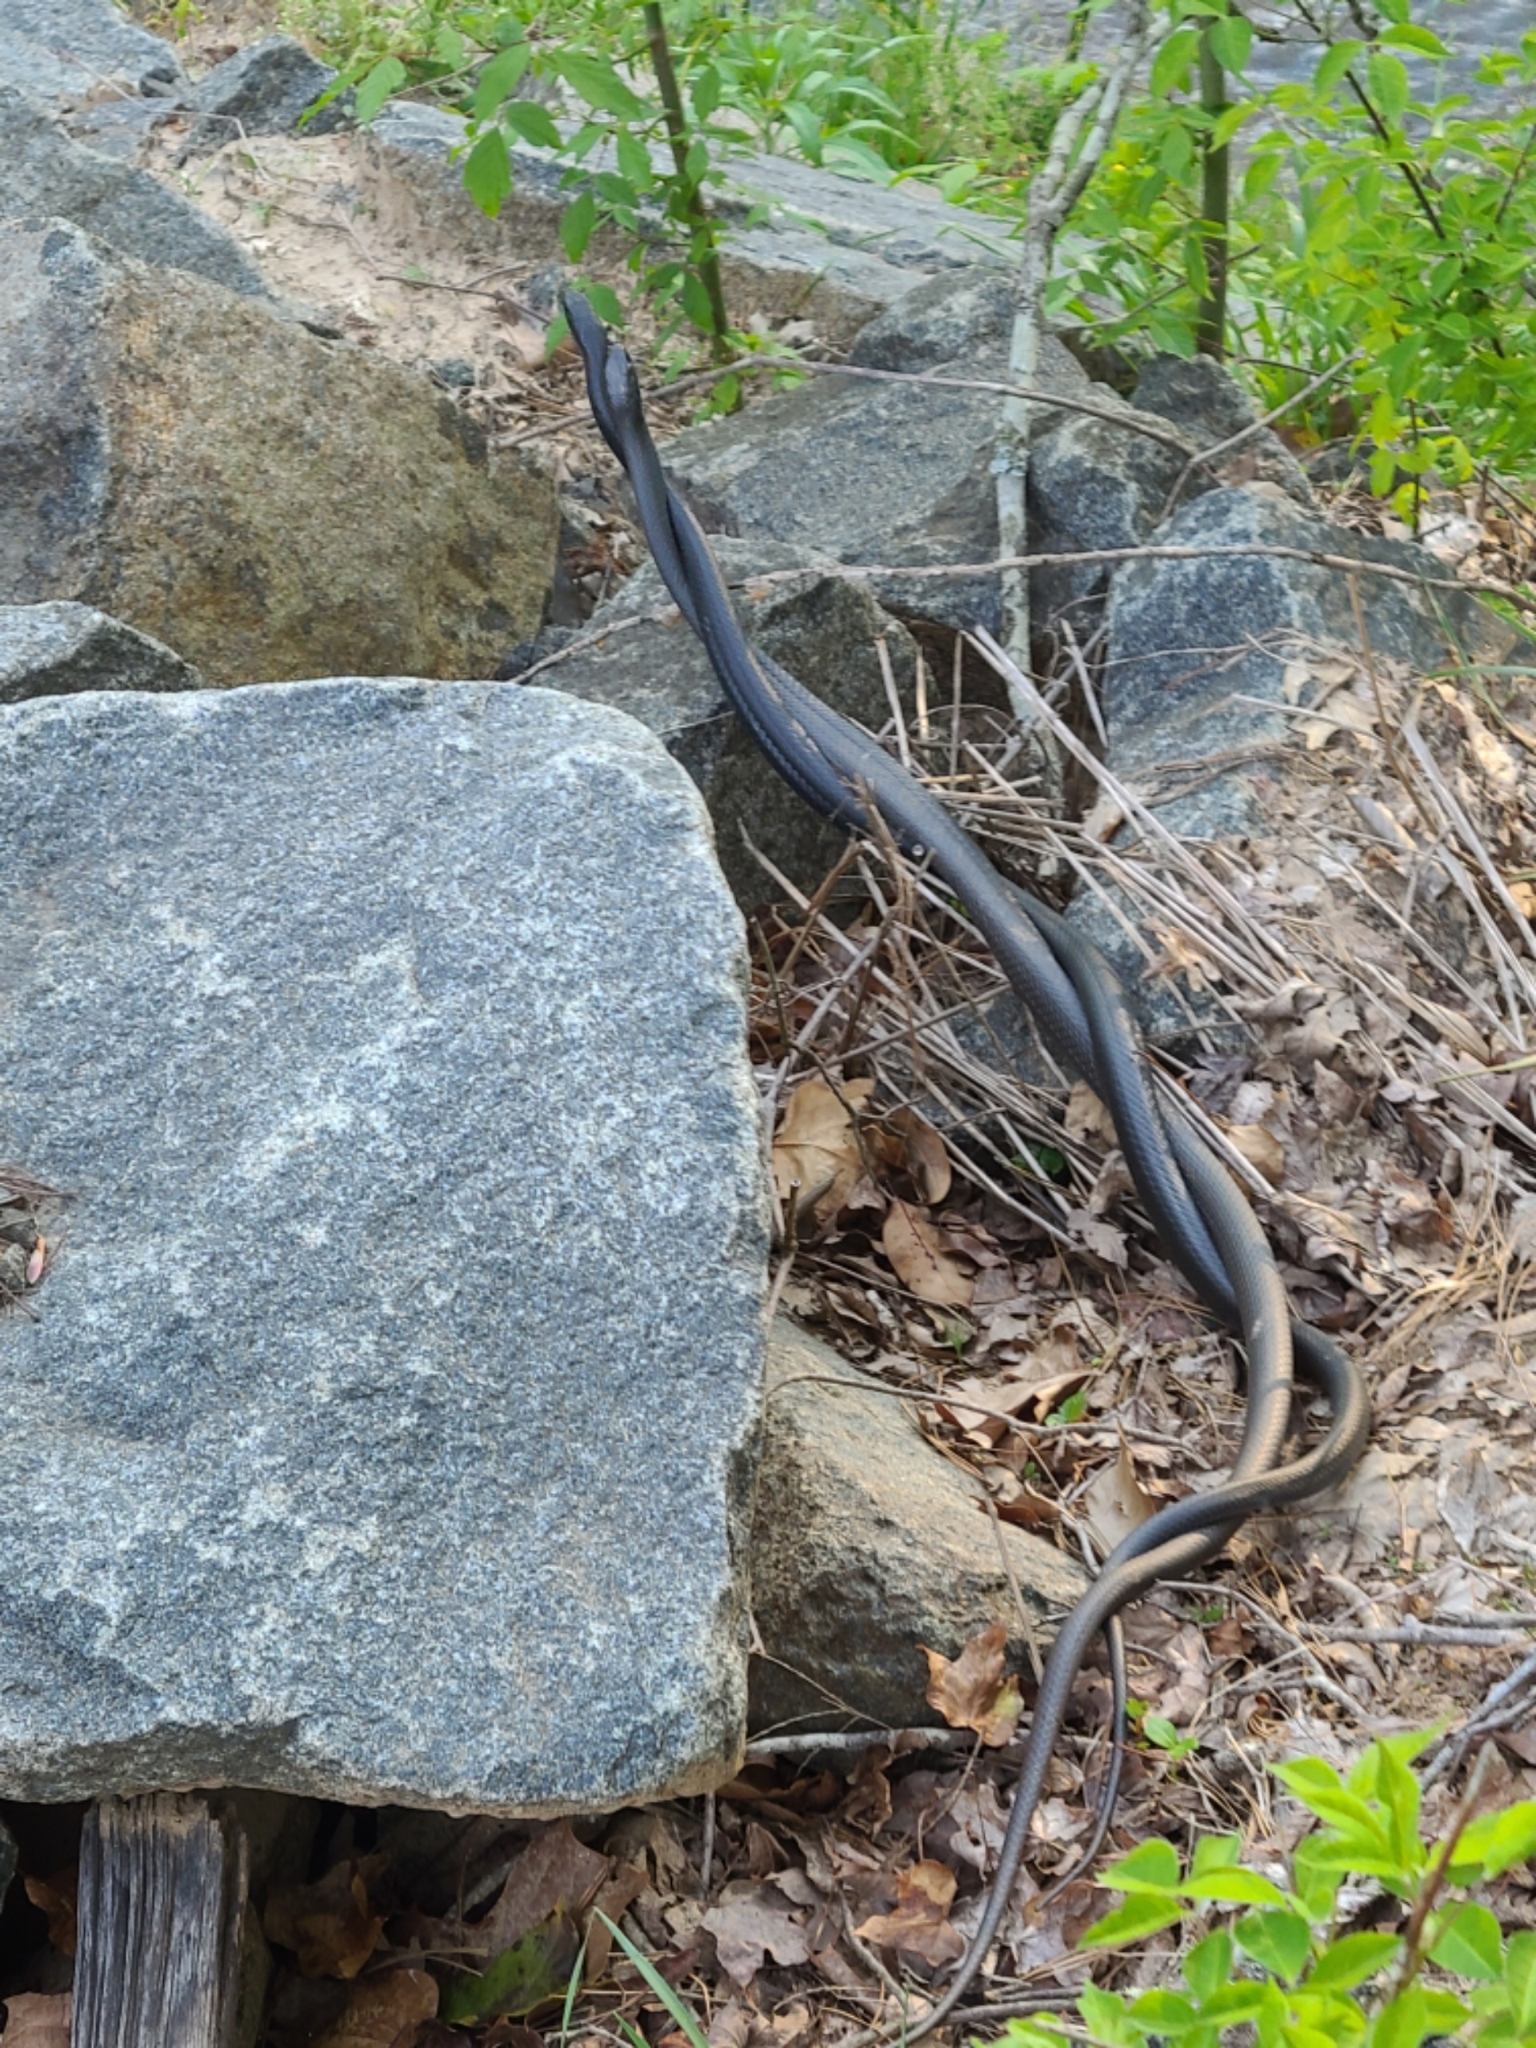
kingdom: Animalia
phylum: Chordata
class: Squamata
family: Colubridae
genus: Coluber
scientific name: Coluber constrictor
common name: Eastern racer
